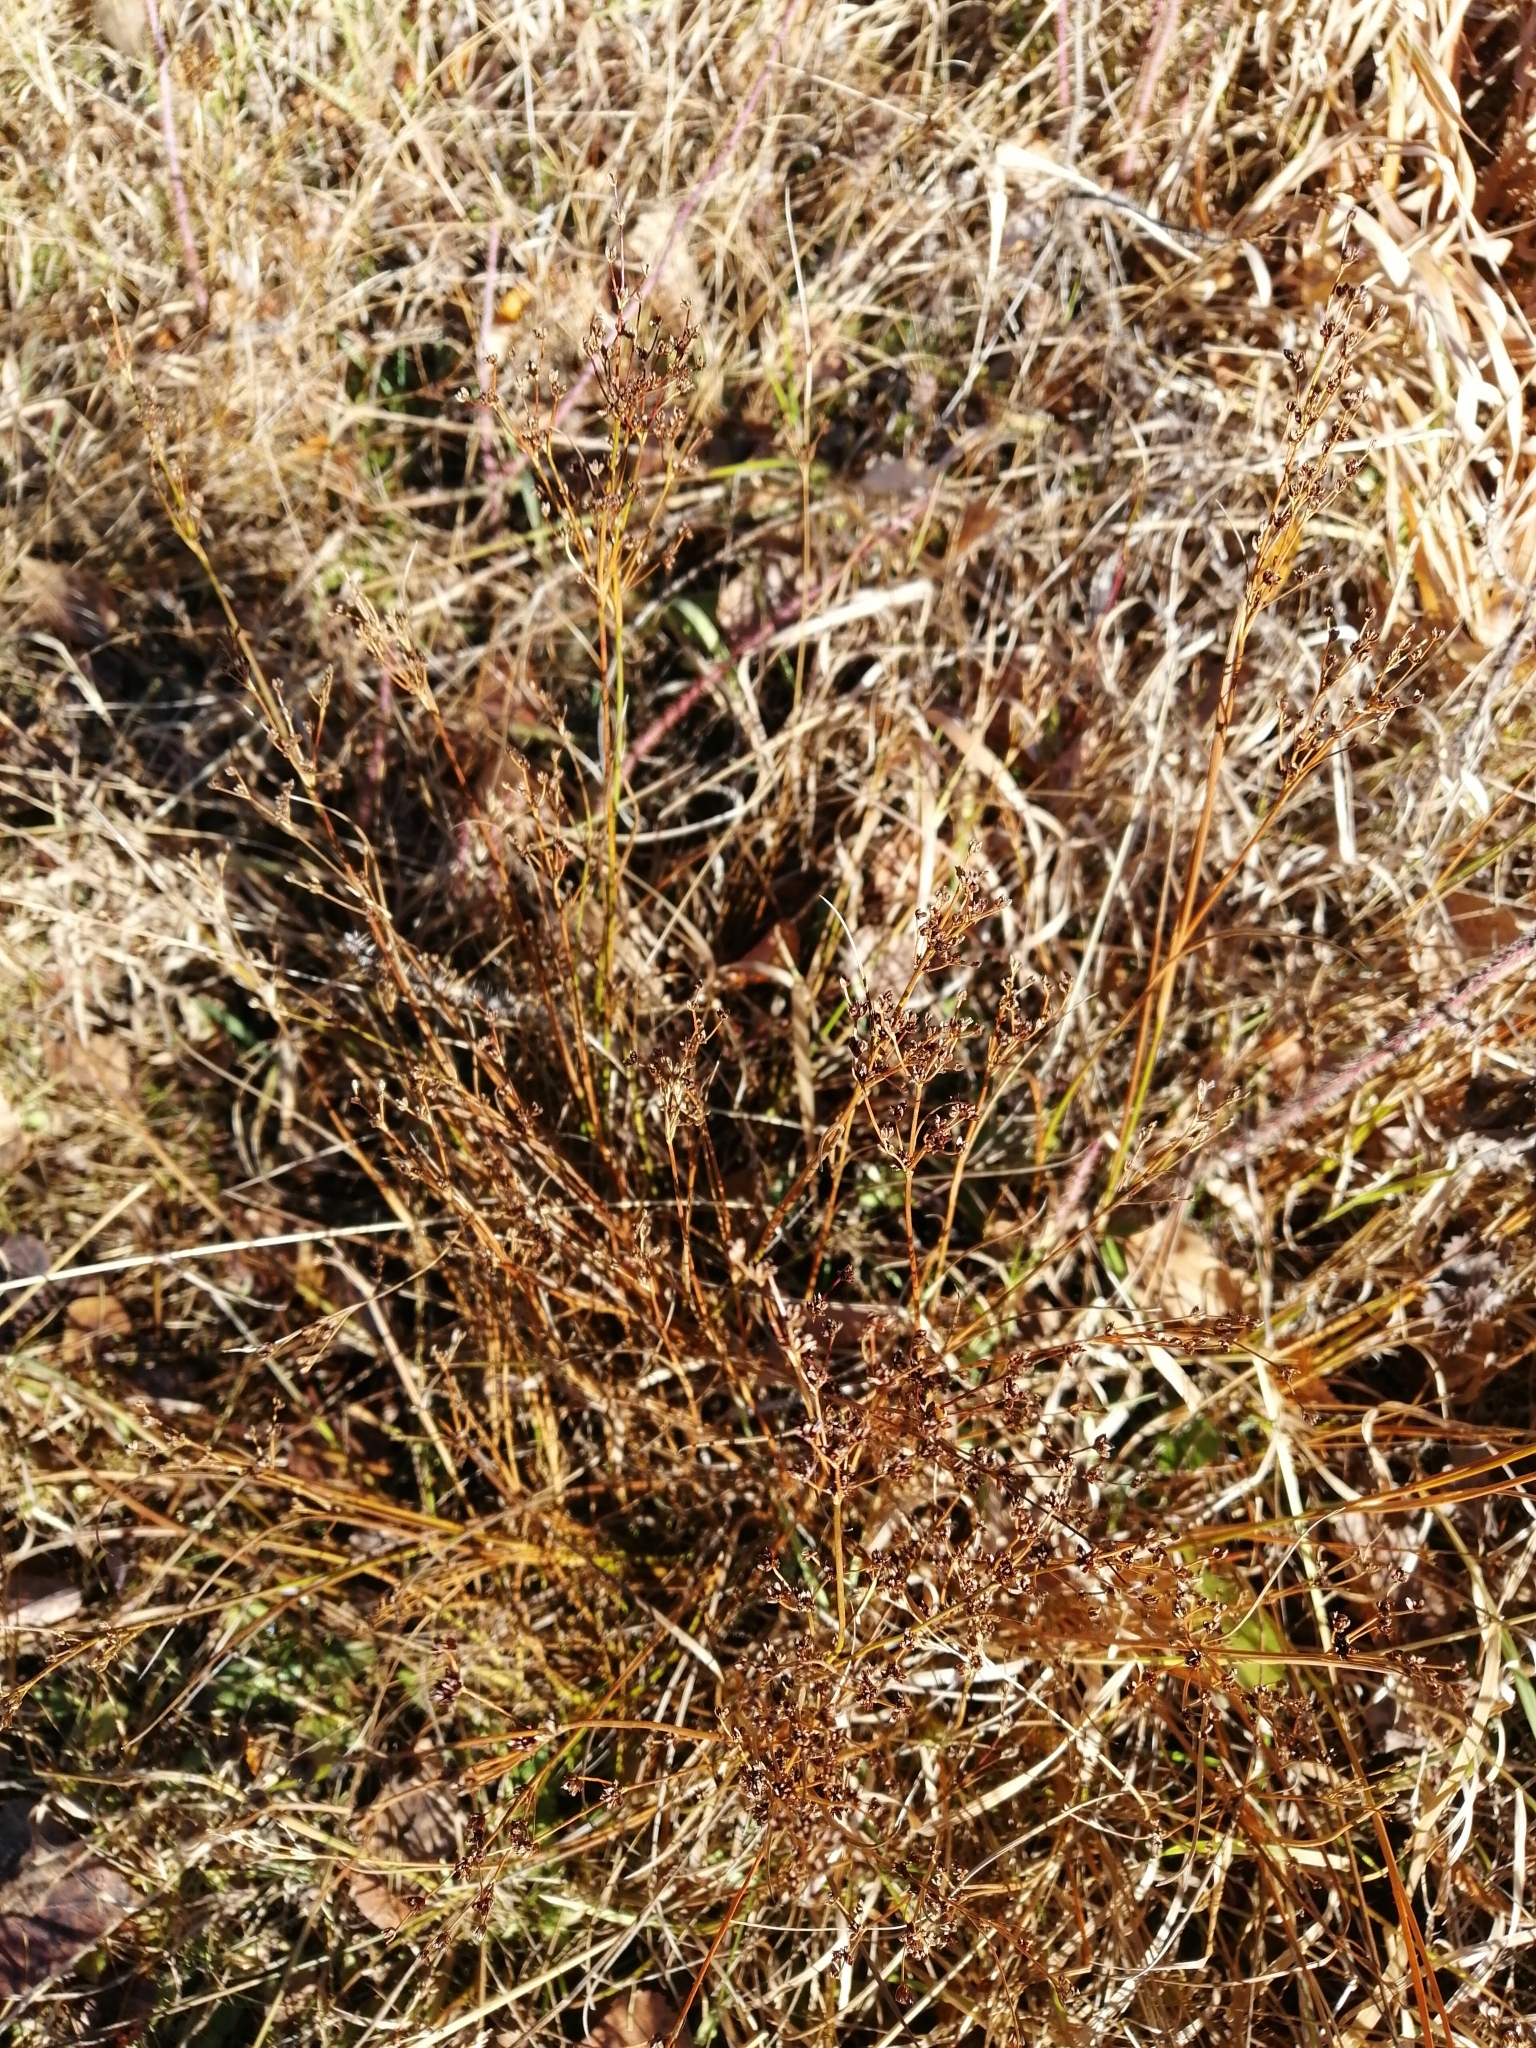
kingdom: Plantae
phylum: Tracheophyta
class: Liliopsida
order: Poales
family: Juncaceae
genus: Juncus
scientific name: Juncus alpinoarticulatus
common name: Alpine rush
